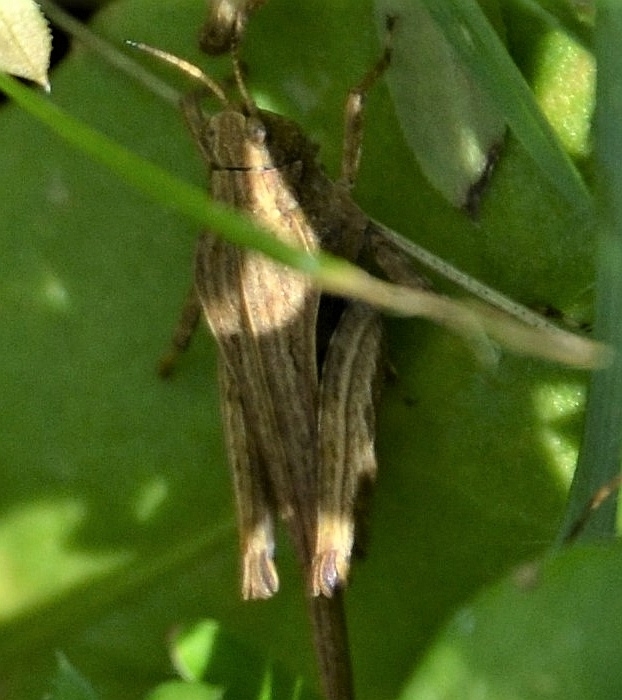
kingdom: Animalia
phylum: Arthropoda
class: Insecta
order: Orthoptera
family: Tetrigidae
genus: Tetrix
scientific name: Tetrix subulata
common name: Slender ground-hopper
